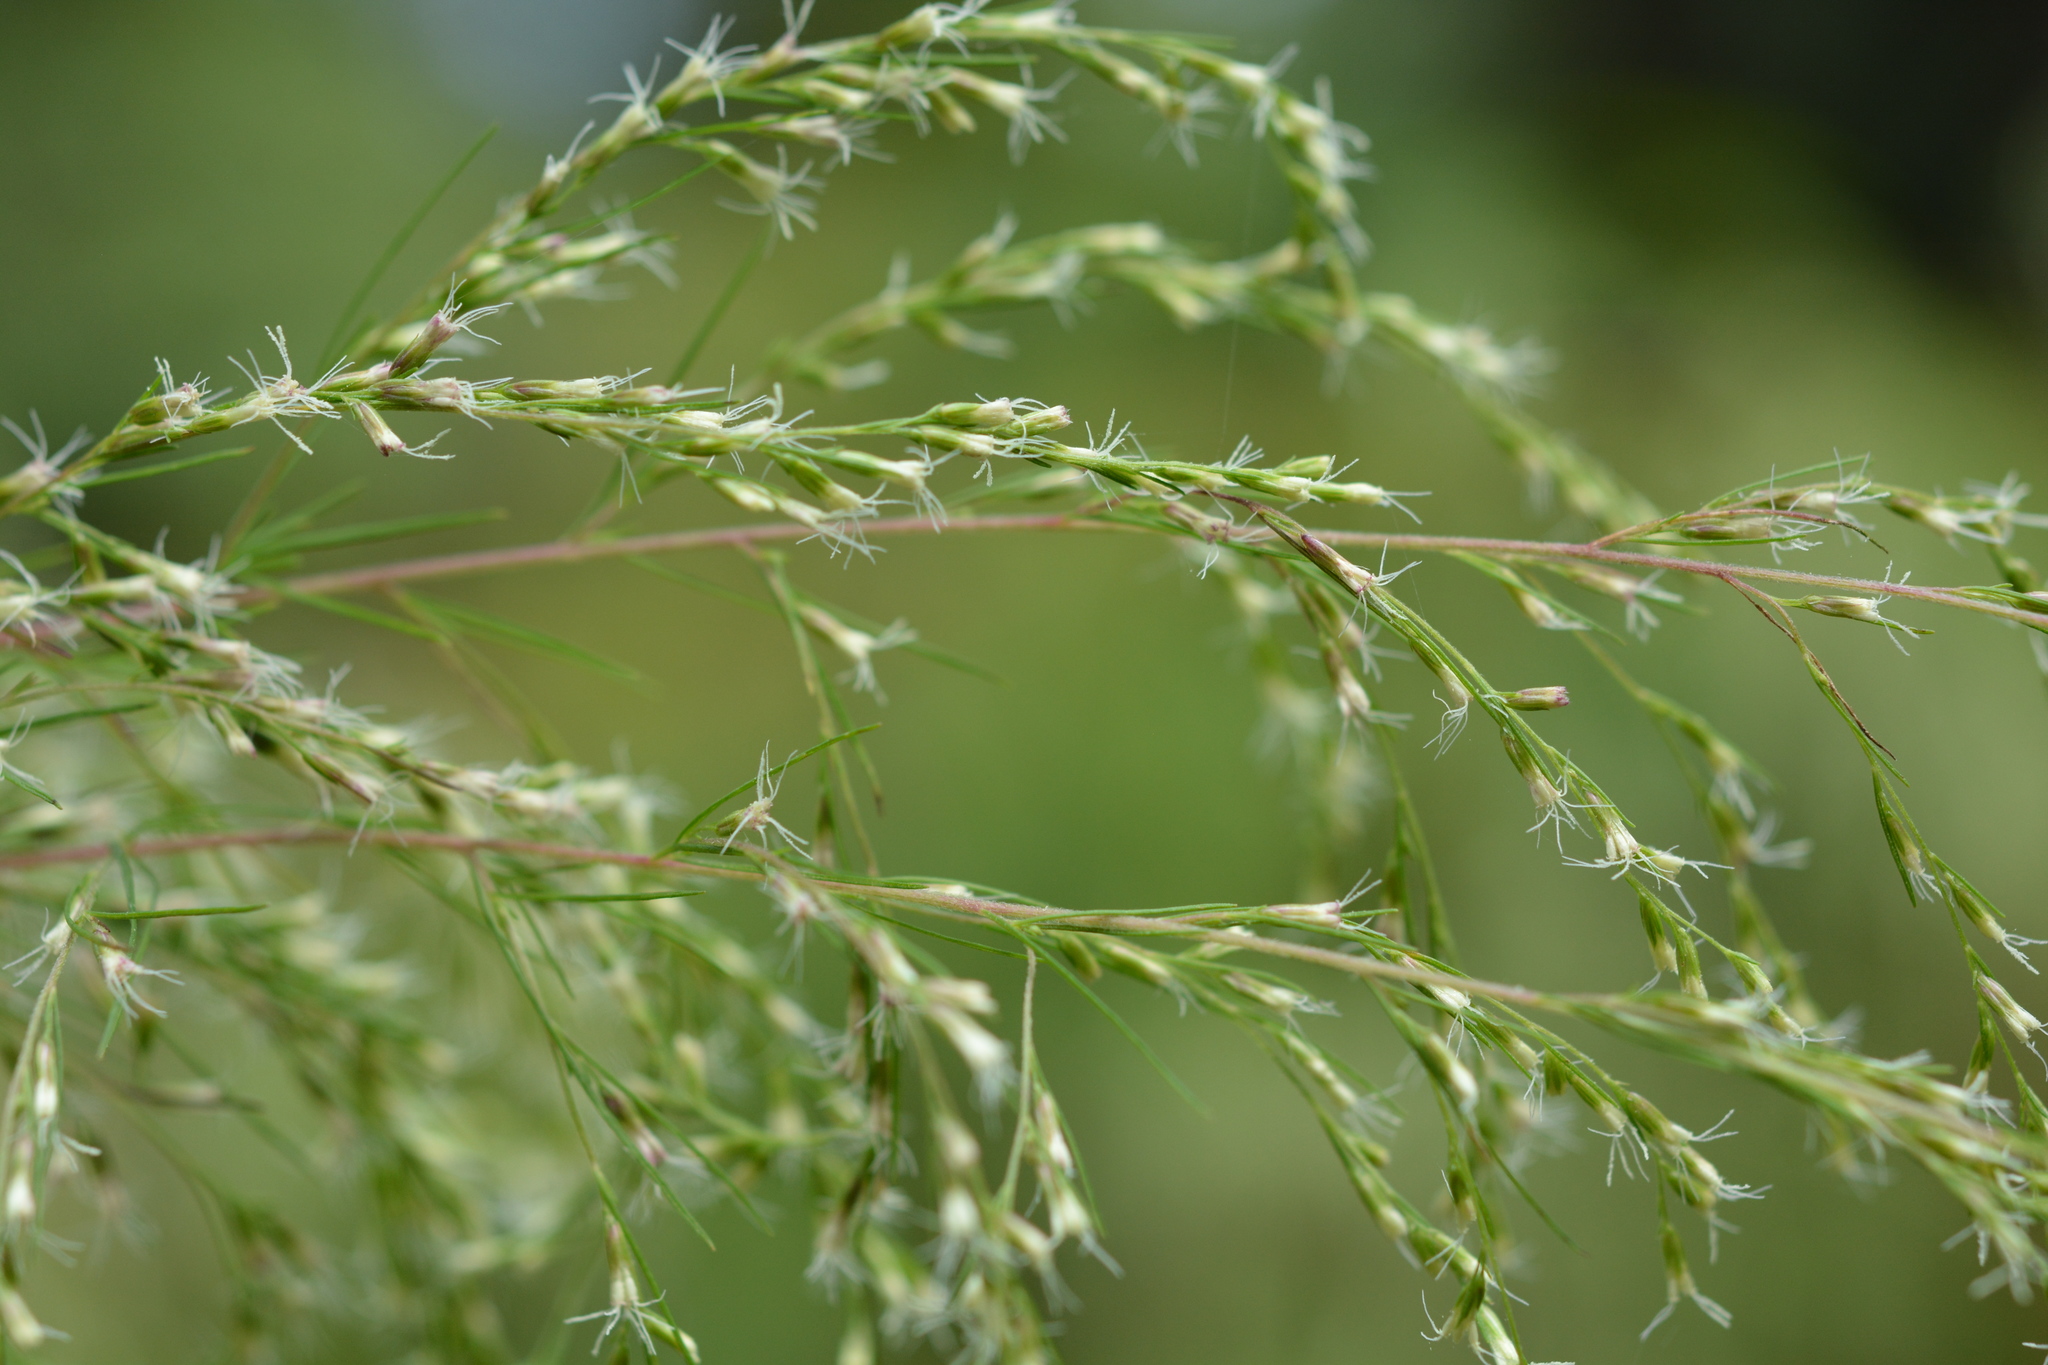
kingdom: Plantae
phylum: Tracheophyta
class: Magnoliopsida
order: Asterales
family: Asteraceae
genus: Eupatorium
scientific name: Eupatorium capillifolium
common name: Dog-fennel
